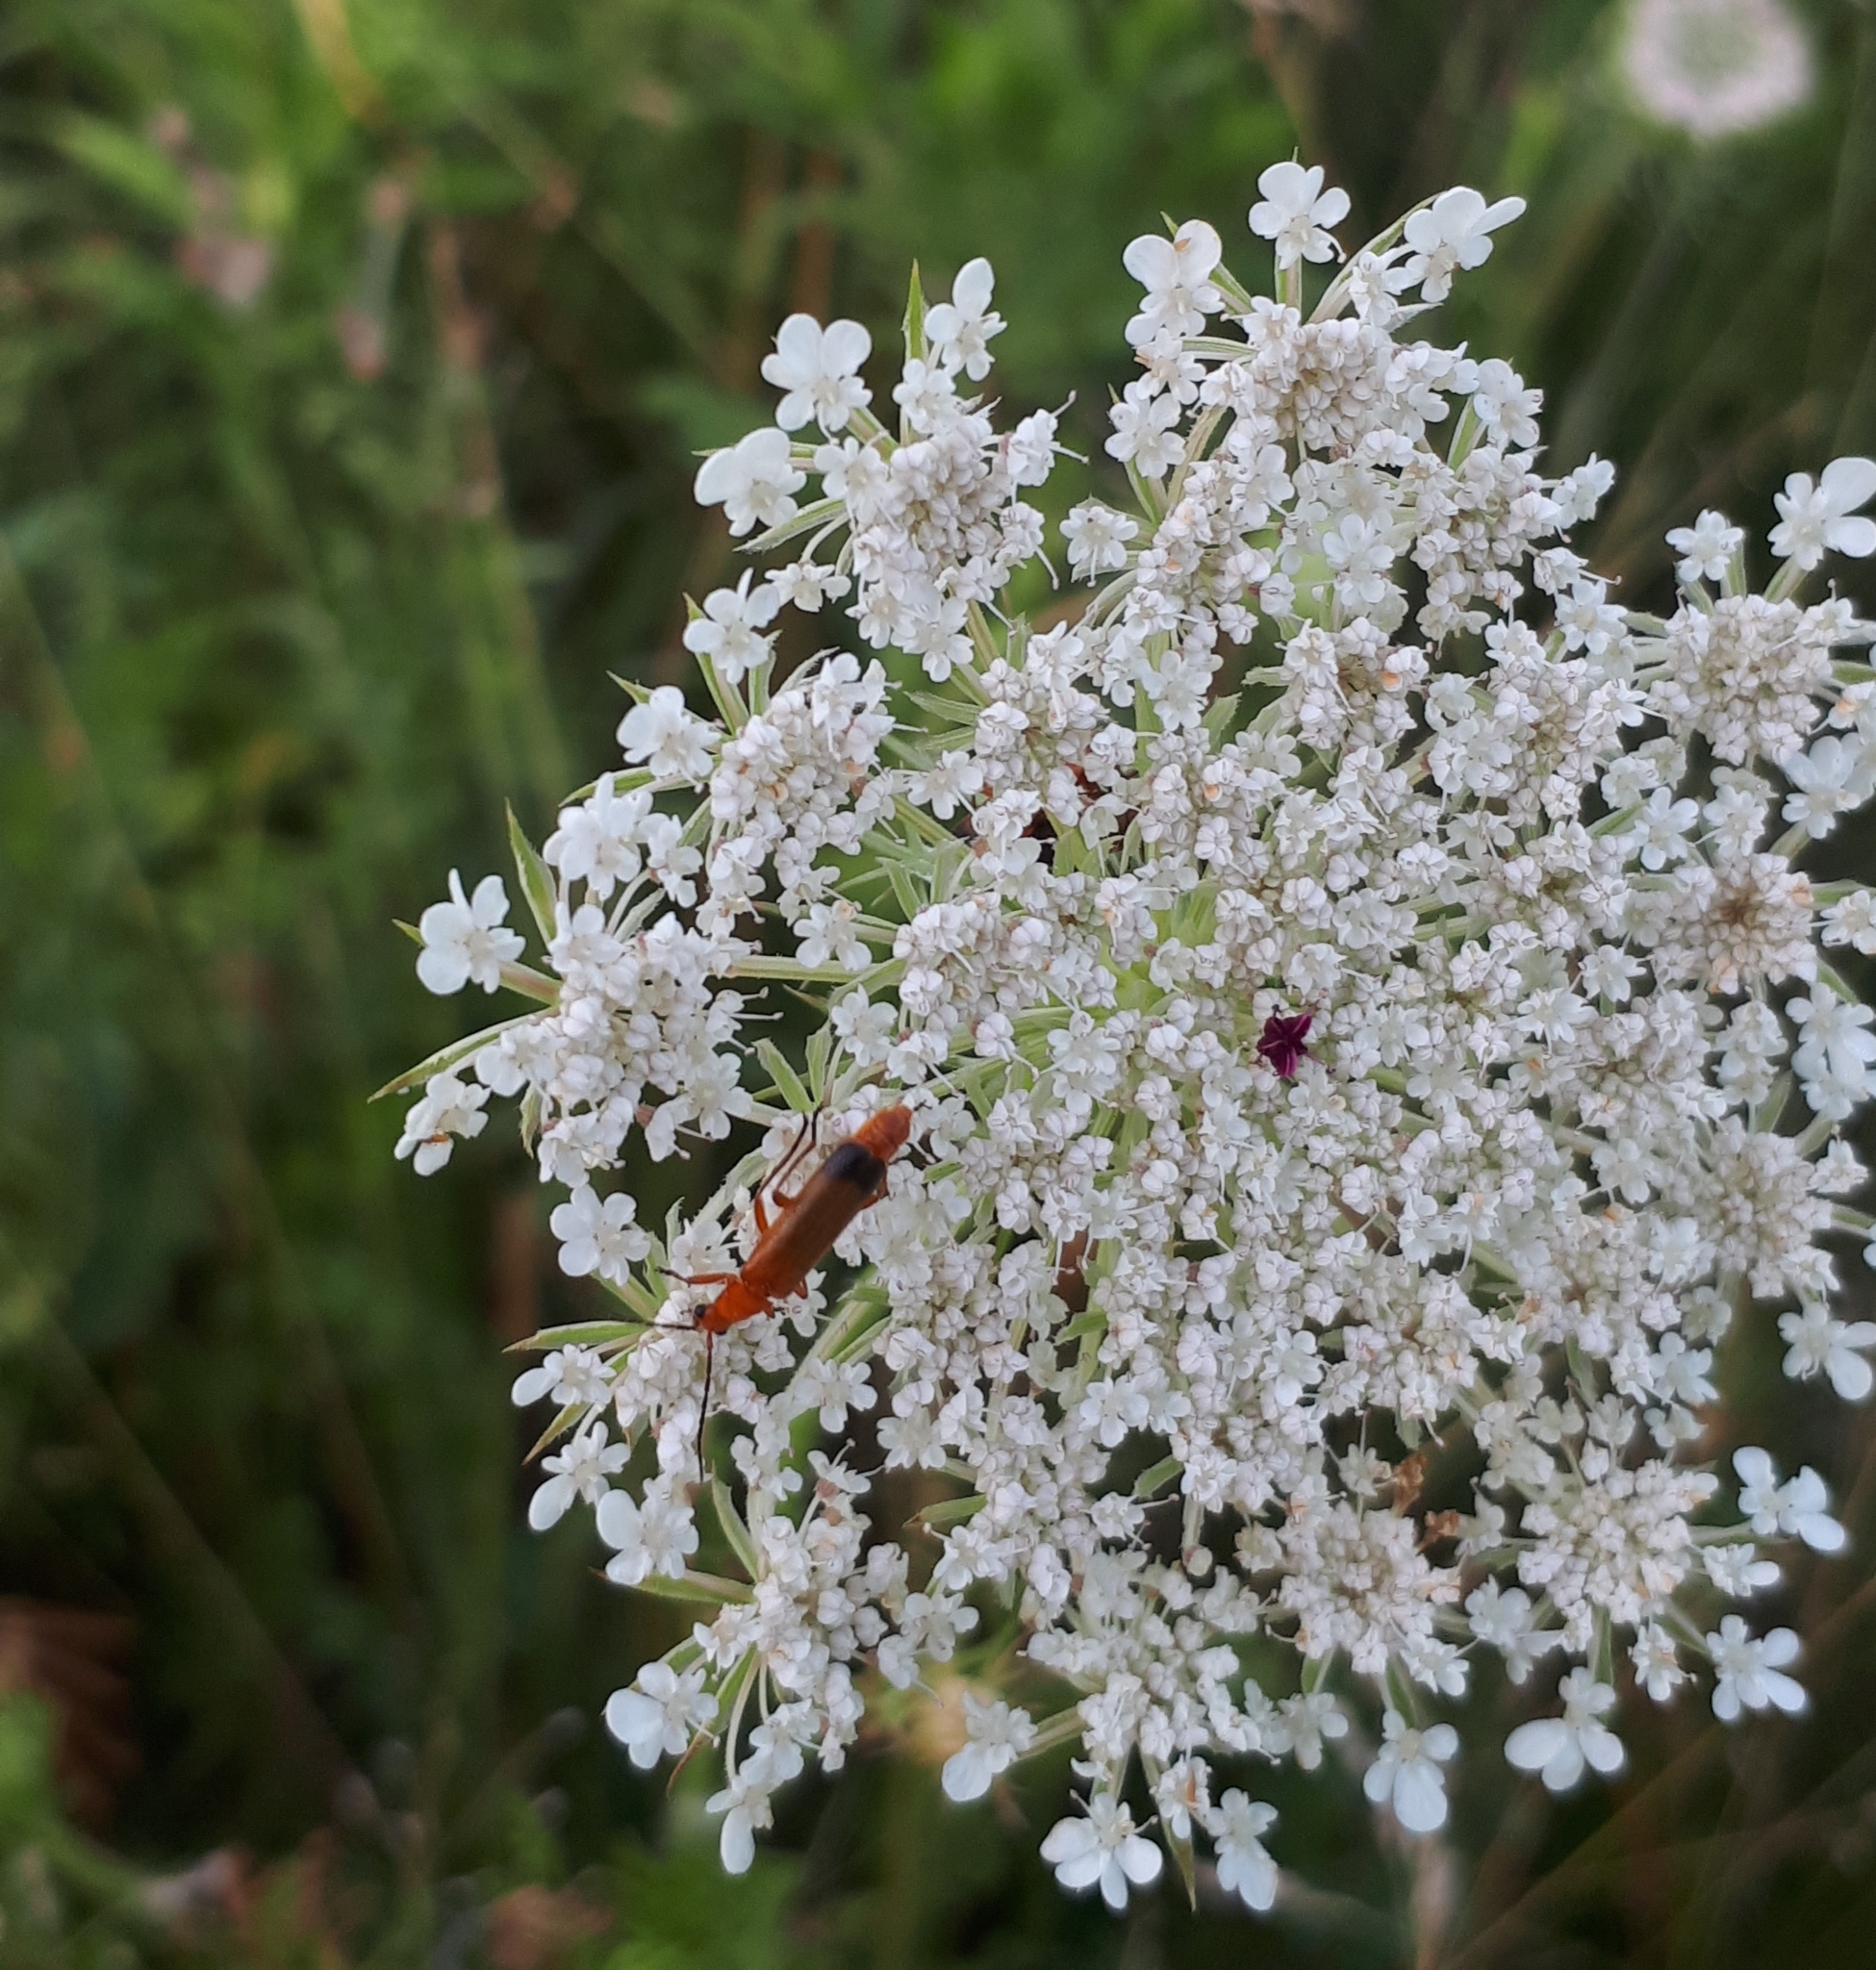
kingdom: Animalia
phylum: Arthropoda
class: Insecta
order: Coleoptera
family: Cantharidae
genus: Rhagonycha
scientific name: Rhagonycha fulva
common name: Common red soldier beetle
